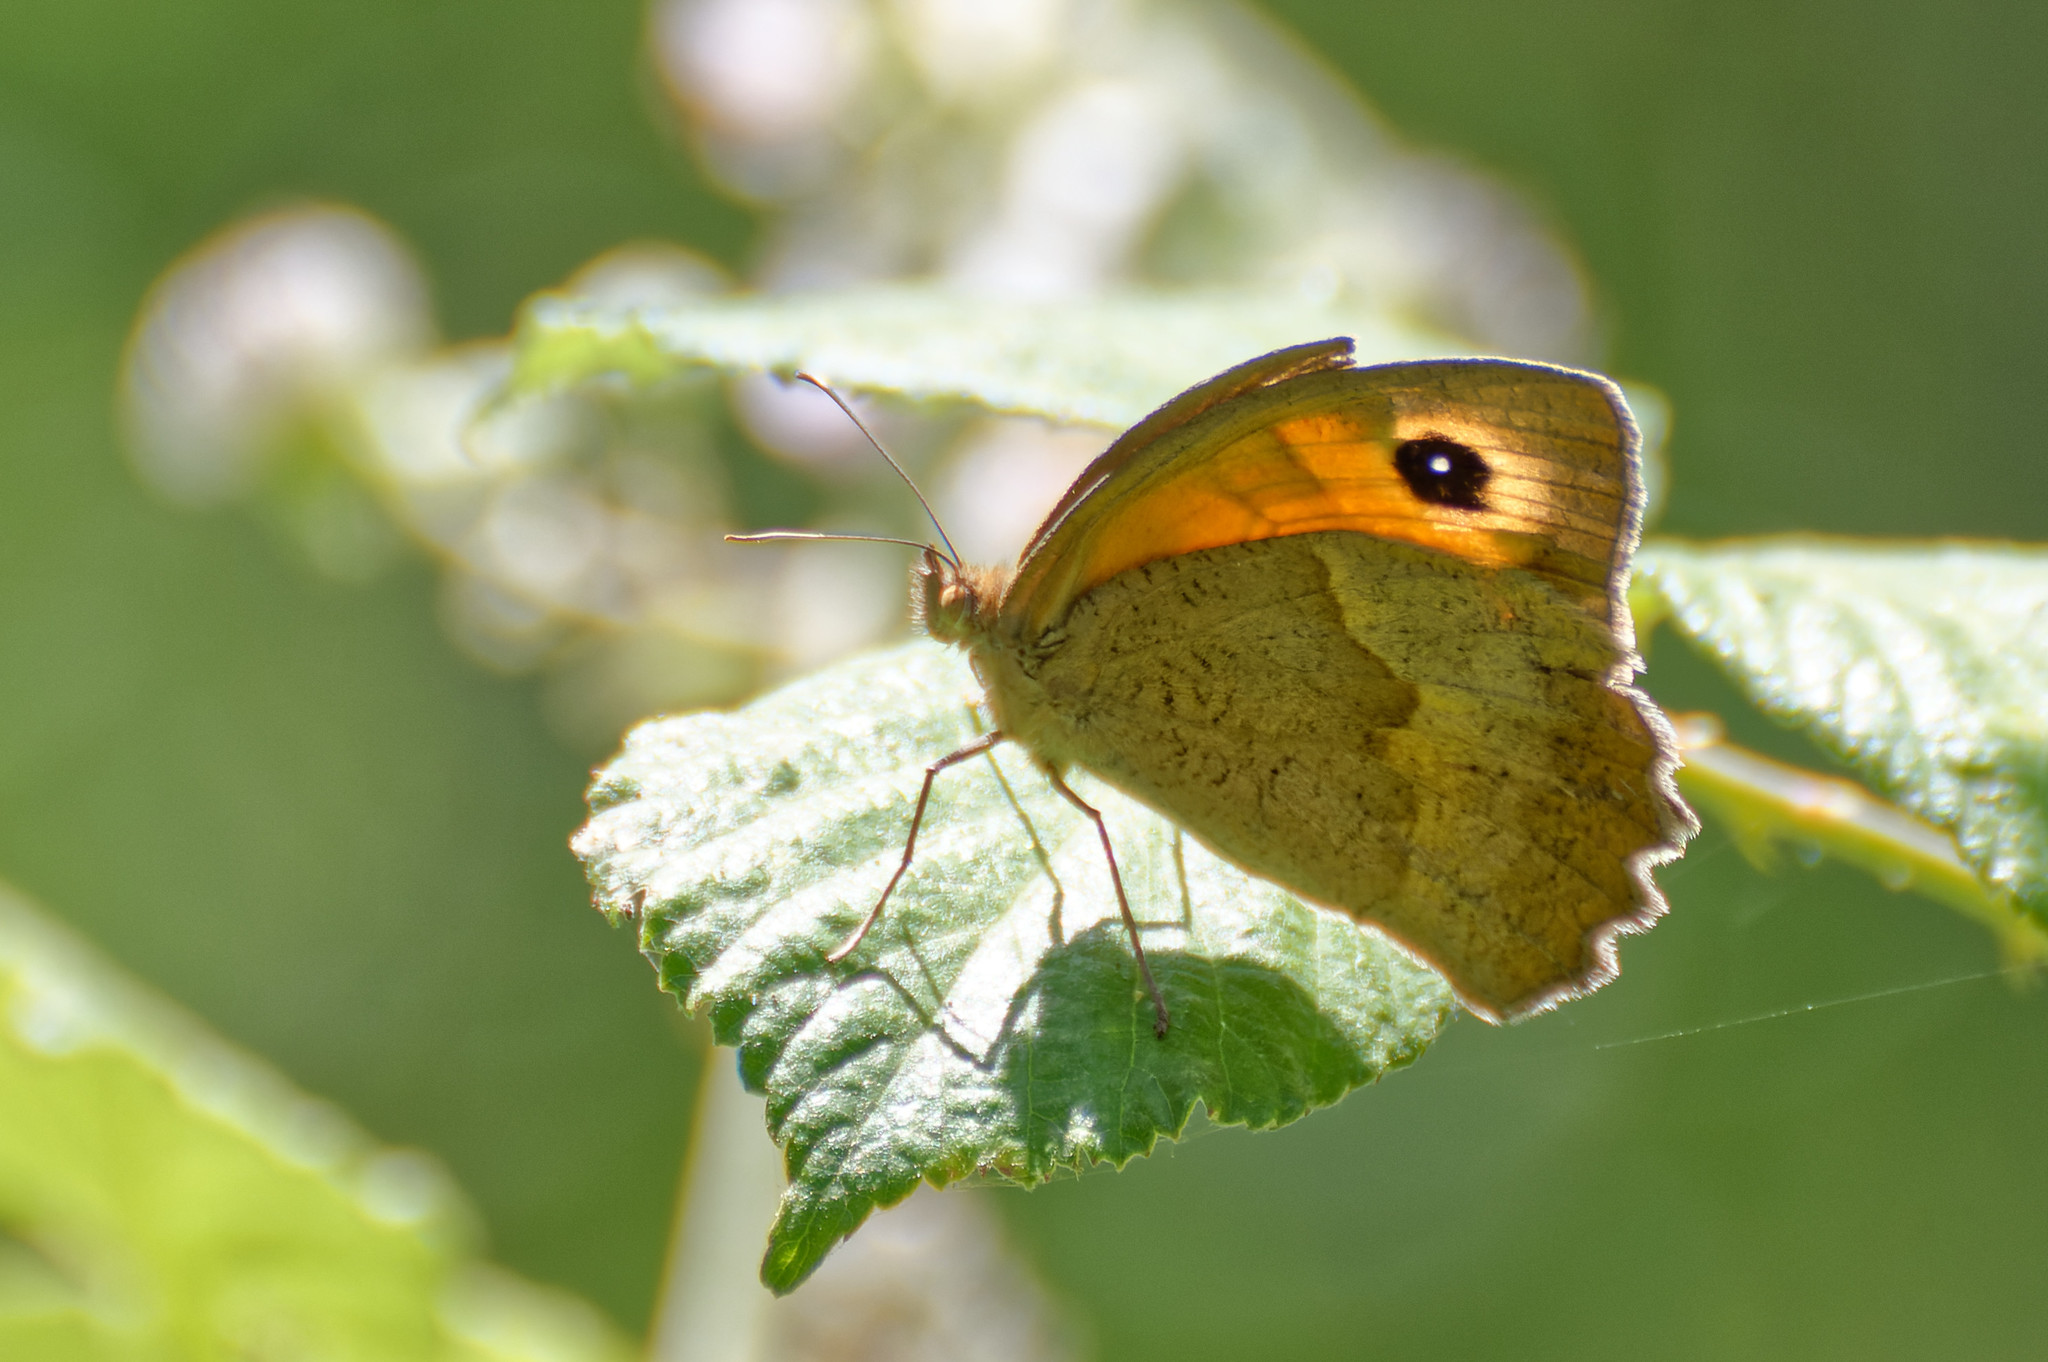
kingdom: Animalia
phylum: Arthropoda
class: Insecta
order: Lepidoptera
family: Nymphalidae
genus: Maniola
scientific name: Maniola jurtina
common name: Meadow brown
